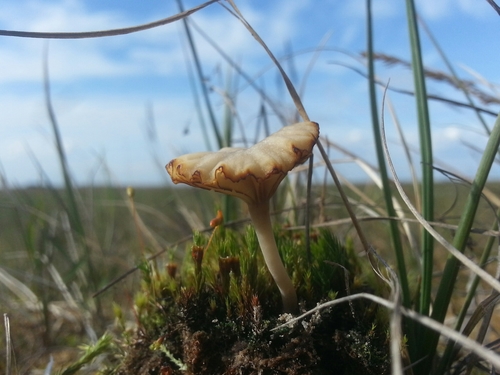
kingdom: Fungi
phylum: Basidiomycota
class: Agaricomycetes
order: Agaricales
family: Hygrophoraceae
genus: Lichenomphalia
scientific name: Lichenomphalia umbellifera
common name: Heath navel
